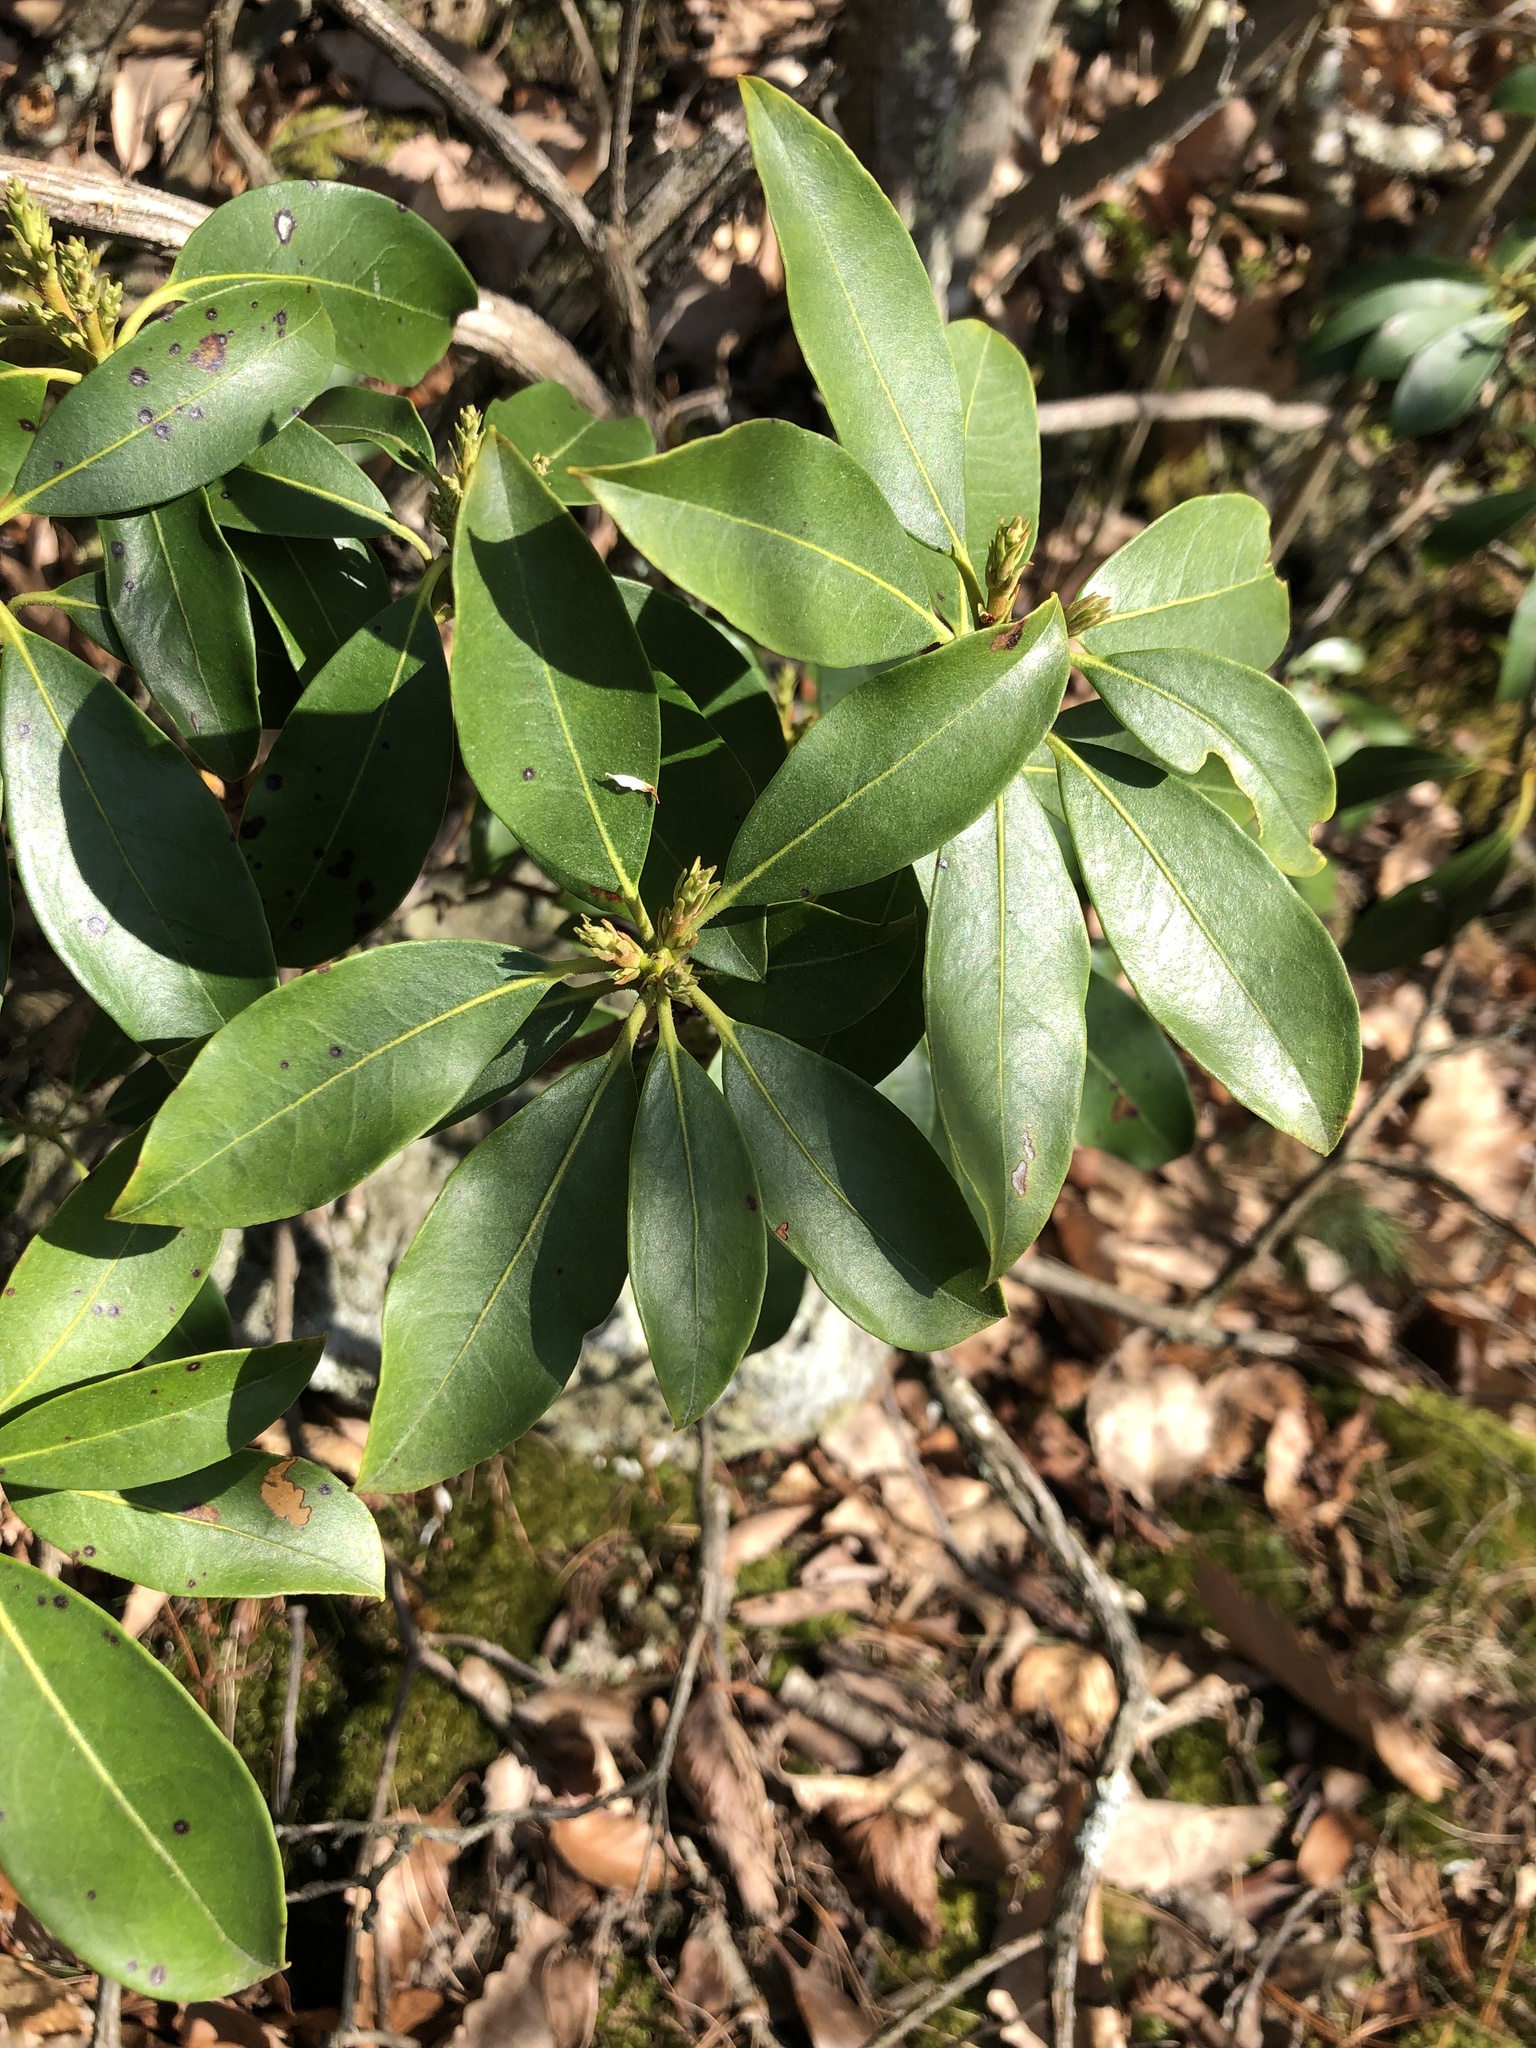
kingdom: Plantae
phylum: Tracheophyta
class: Magnoliopsida
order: Ericales
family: Ericaceae
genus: Kalmia
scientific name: Kalmia latifolia
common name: Mountain-laurel
